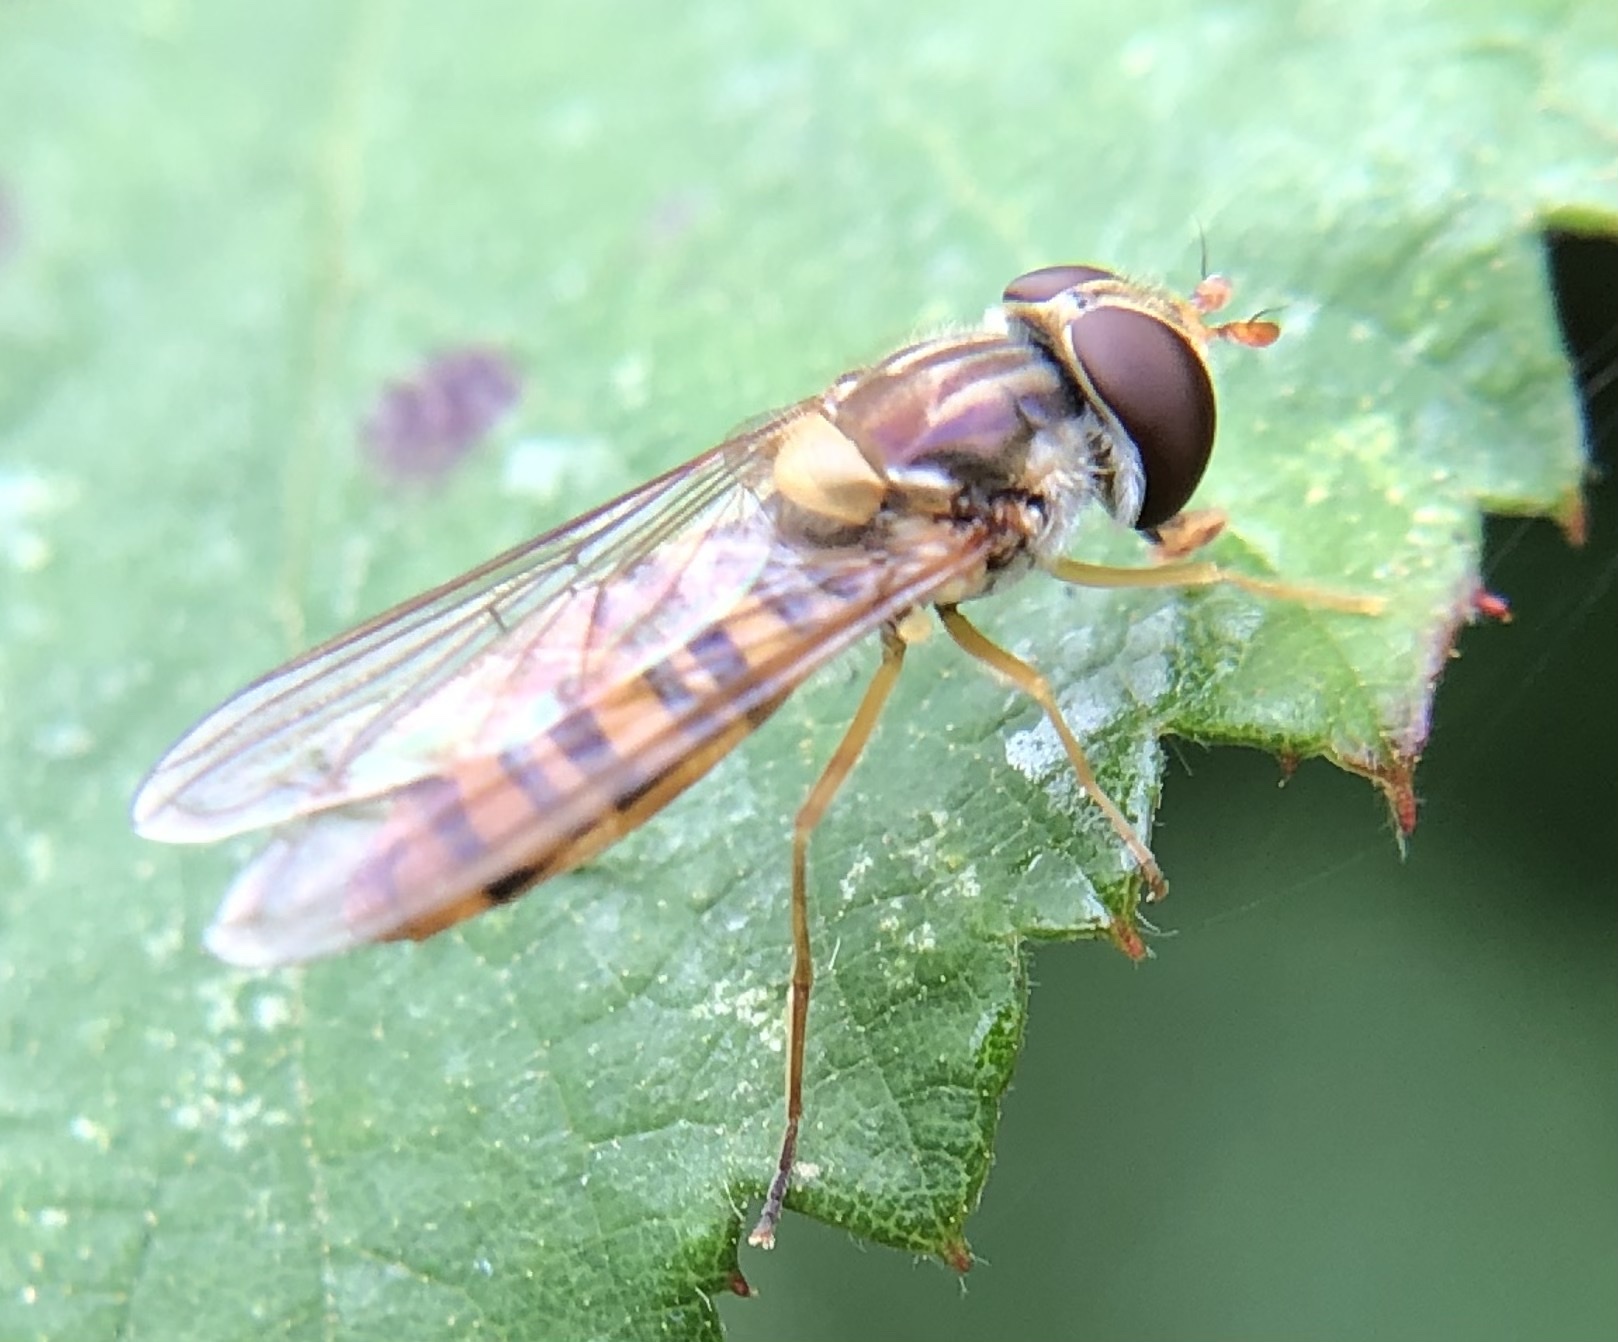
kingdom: Animalia
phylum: Arthropoda
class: Insecta
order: Diptera
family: Syrphidae
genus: Episyrphus
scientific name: Episyrphus balteatus
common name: Marmalade hoverfly
